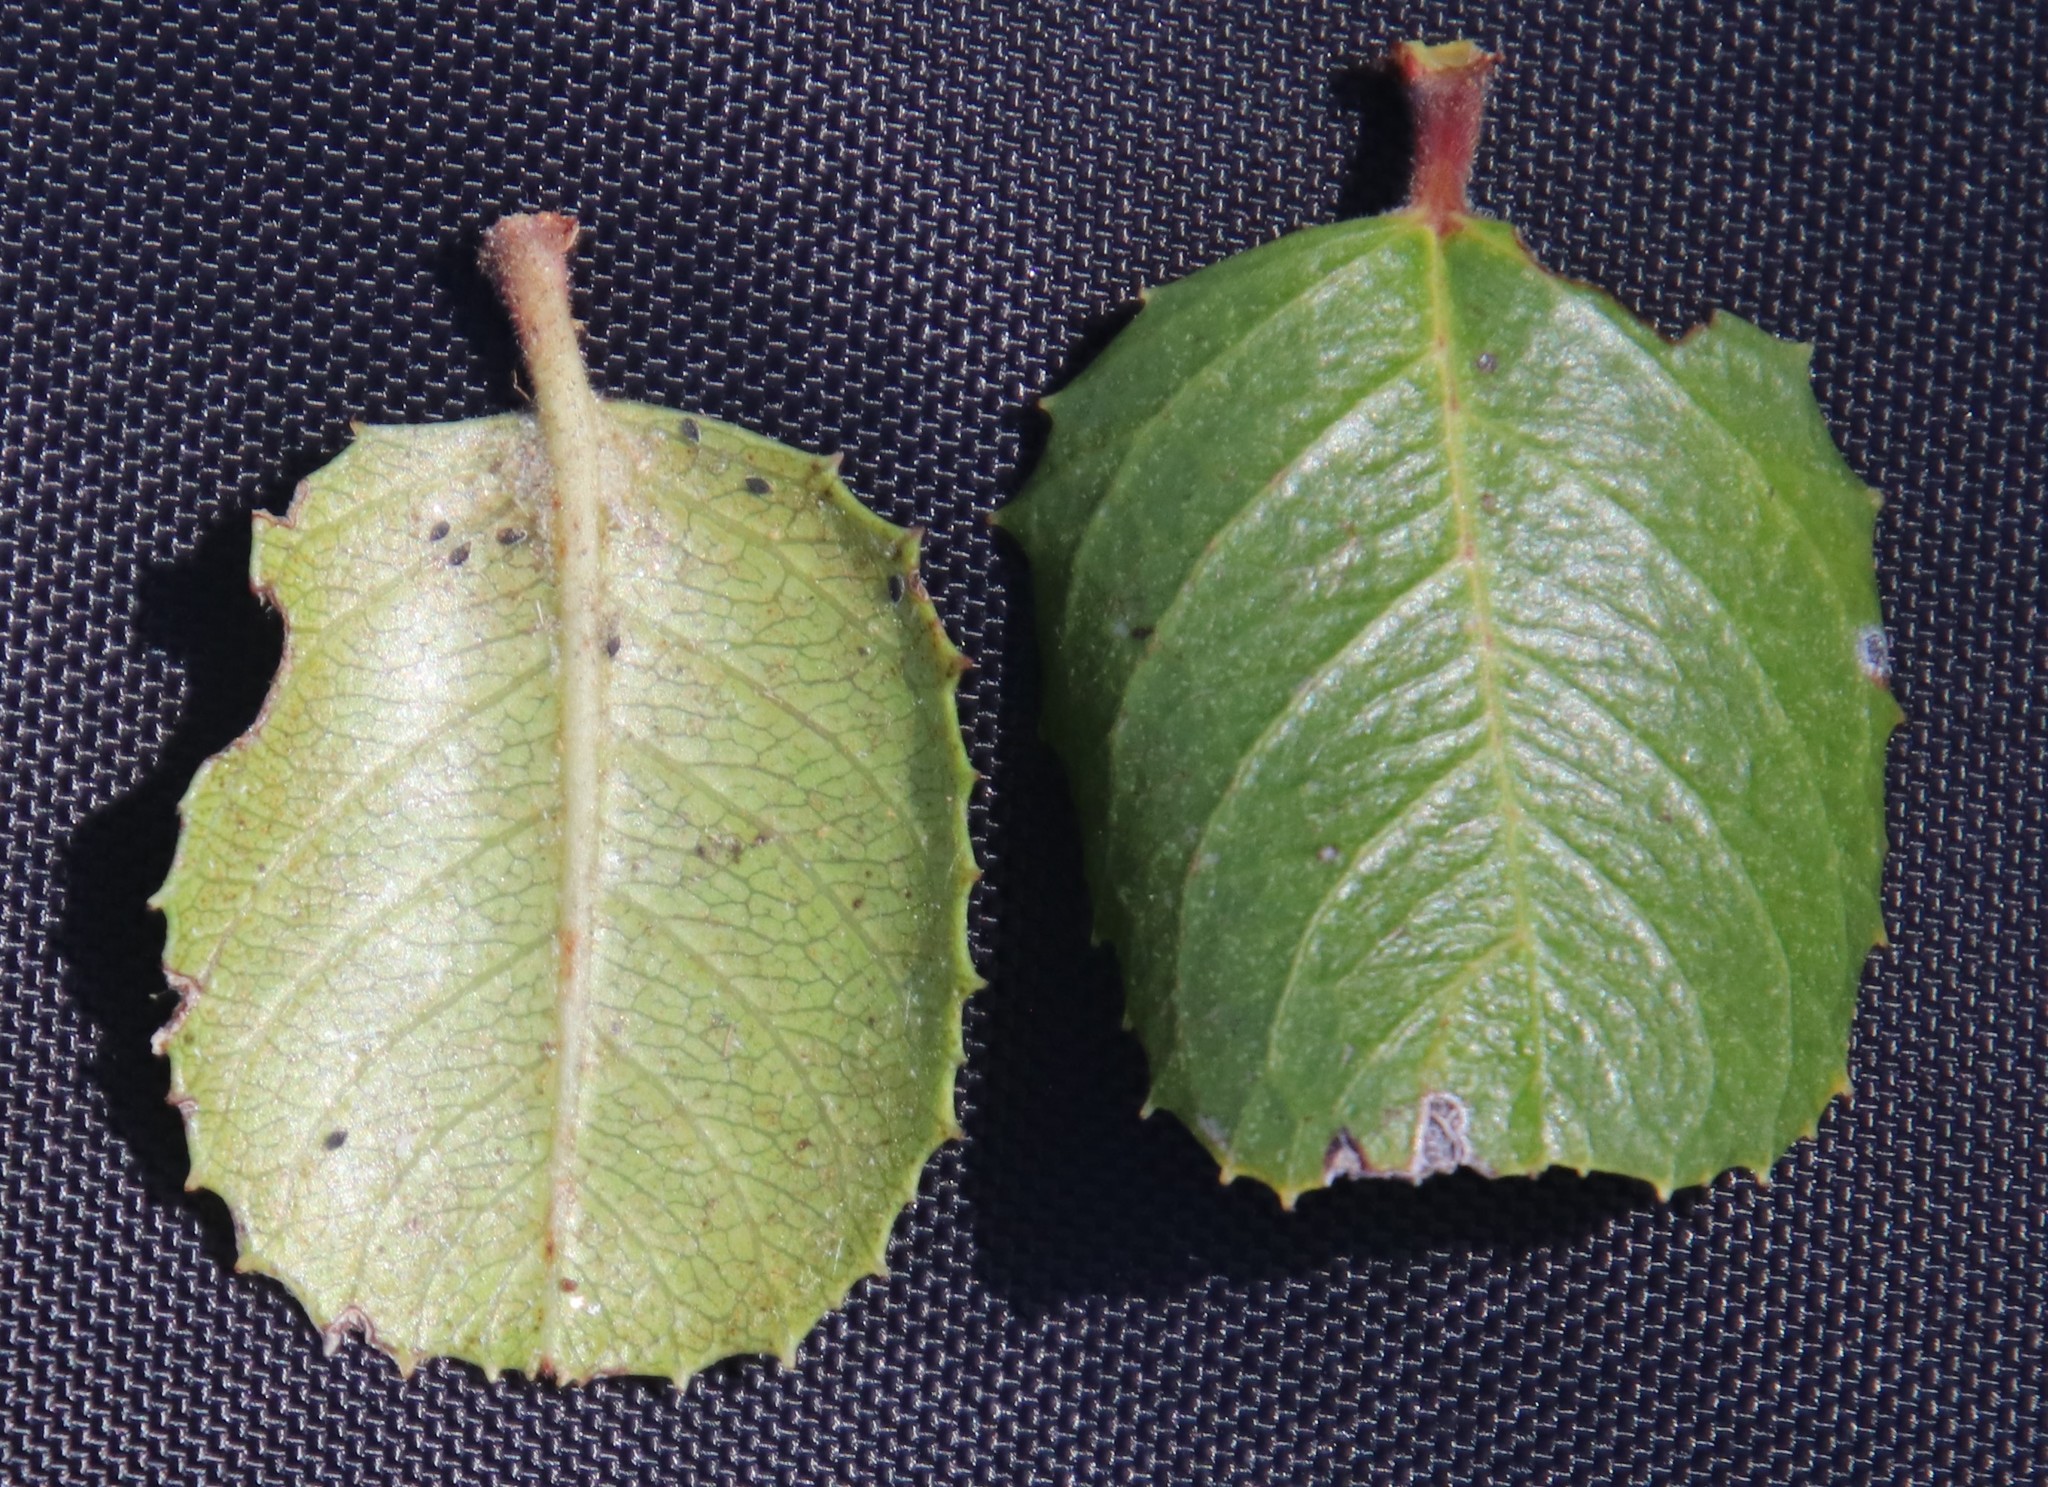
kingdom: Plantae
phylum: Tracheophyta
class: Magnoliopsida
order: Rosales
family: Rhamnaceae
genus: Endotropis
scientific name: Endotropis crocea
